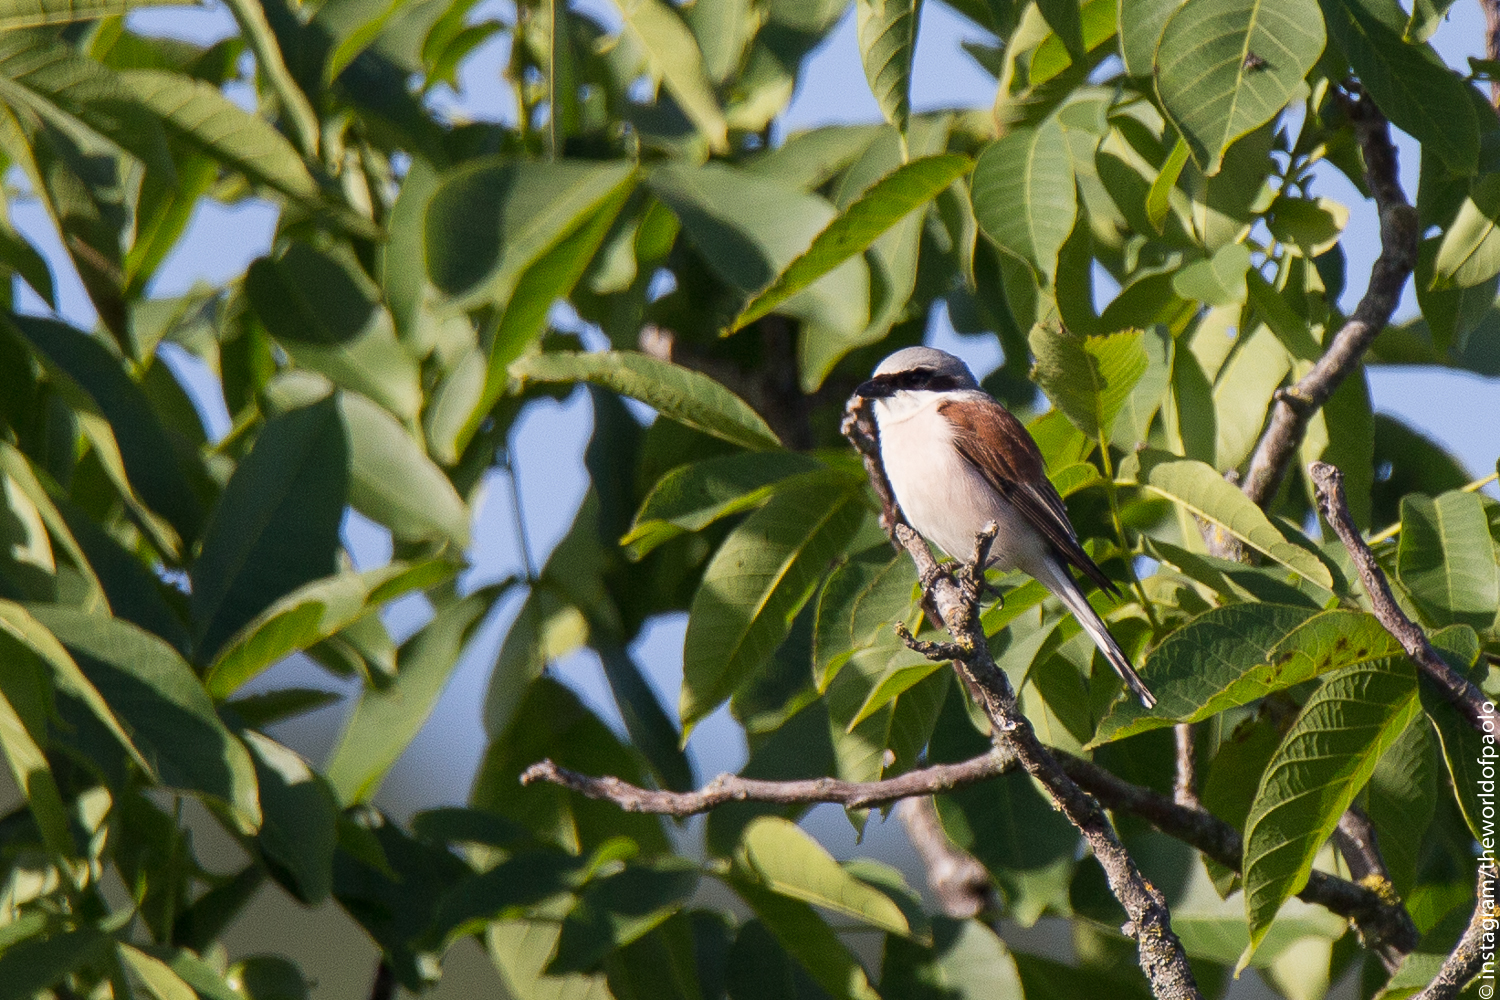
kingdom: Animalia
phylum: Chordata
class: Aves
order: Passeriformes
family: Laniidae
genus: Lanius
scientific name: Lanius collurio
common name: Red-backed shrike
